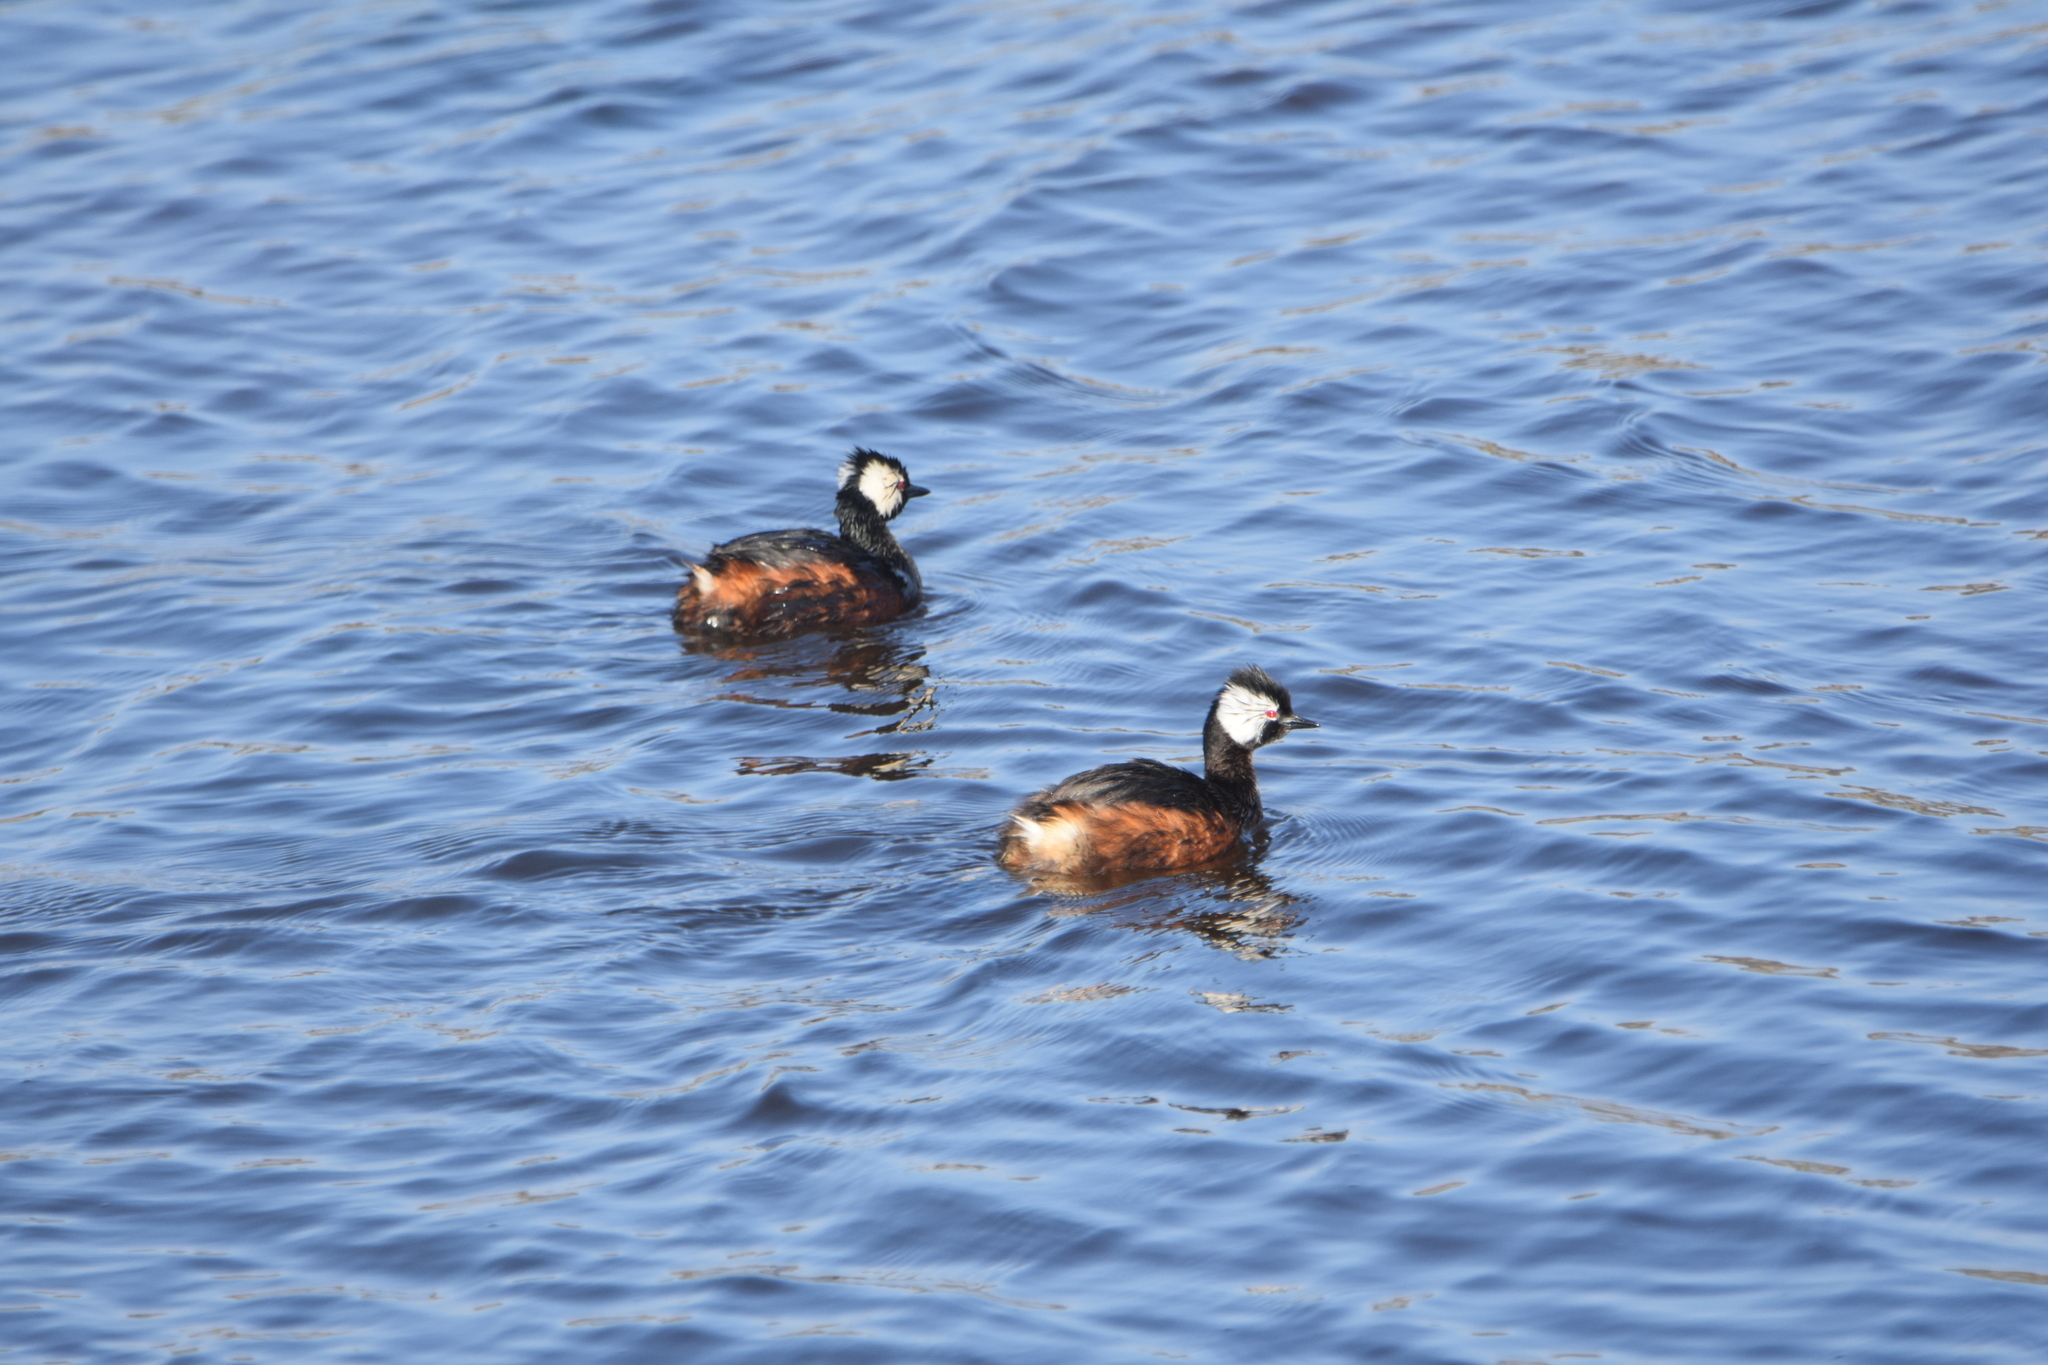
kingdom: Animalia
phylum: Chordata
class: Aves
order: Podicipediformes
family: Podicipedidae
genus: Rollandia
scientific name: Rollandia rolland
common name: White-tufted grebe
